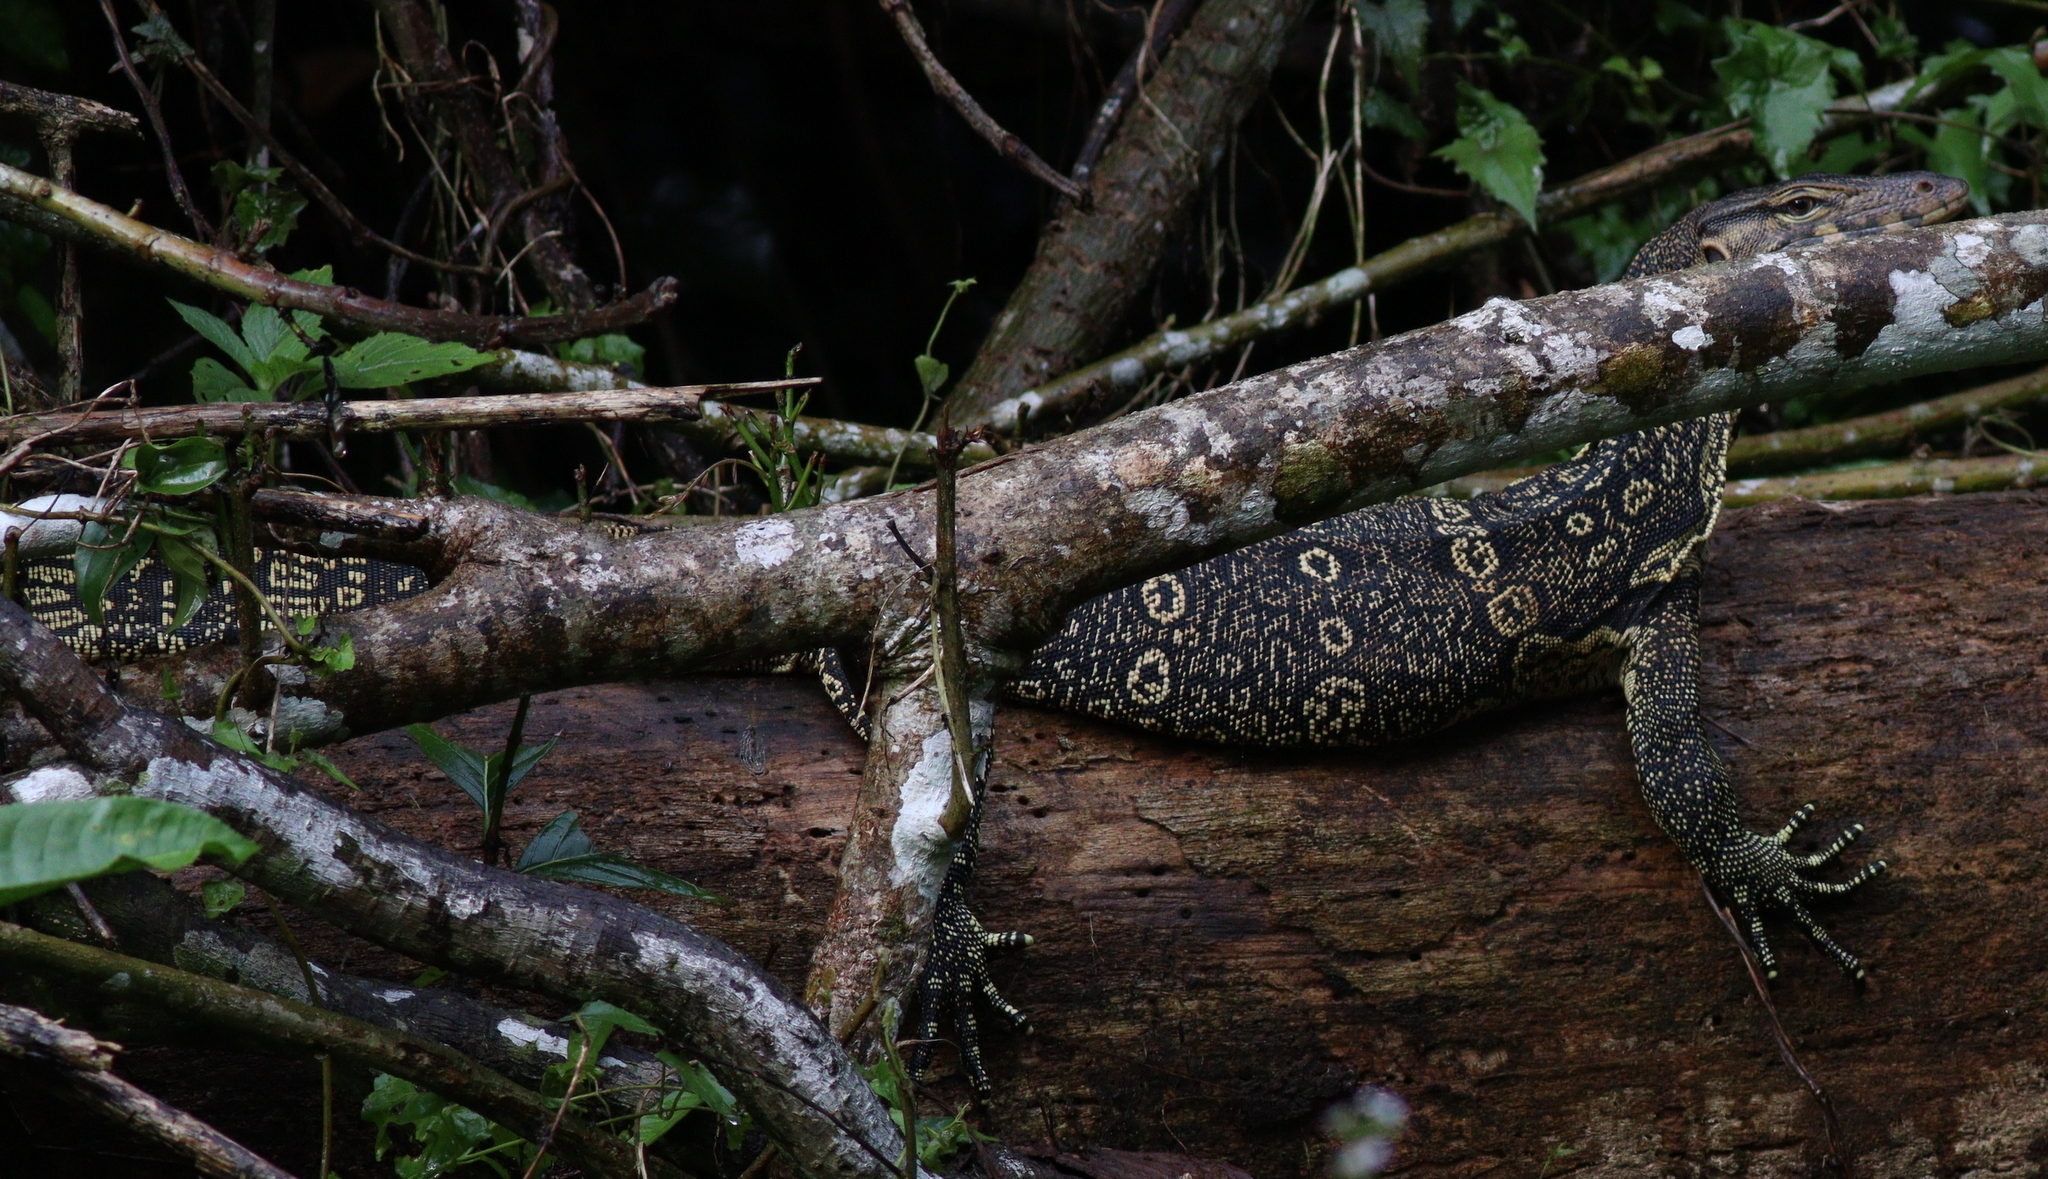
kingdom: Animalia
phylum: Chordata
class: Squamata
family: Varanidae
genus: Varanus
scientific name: Varanus salvator
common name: Common water monitor
